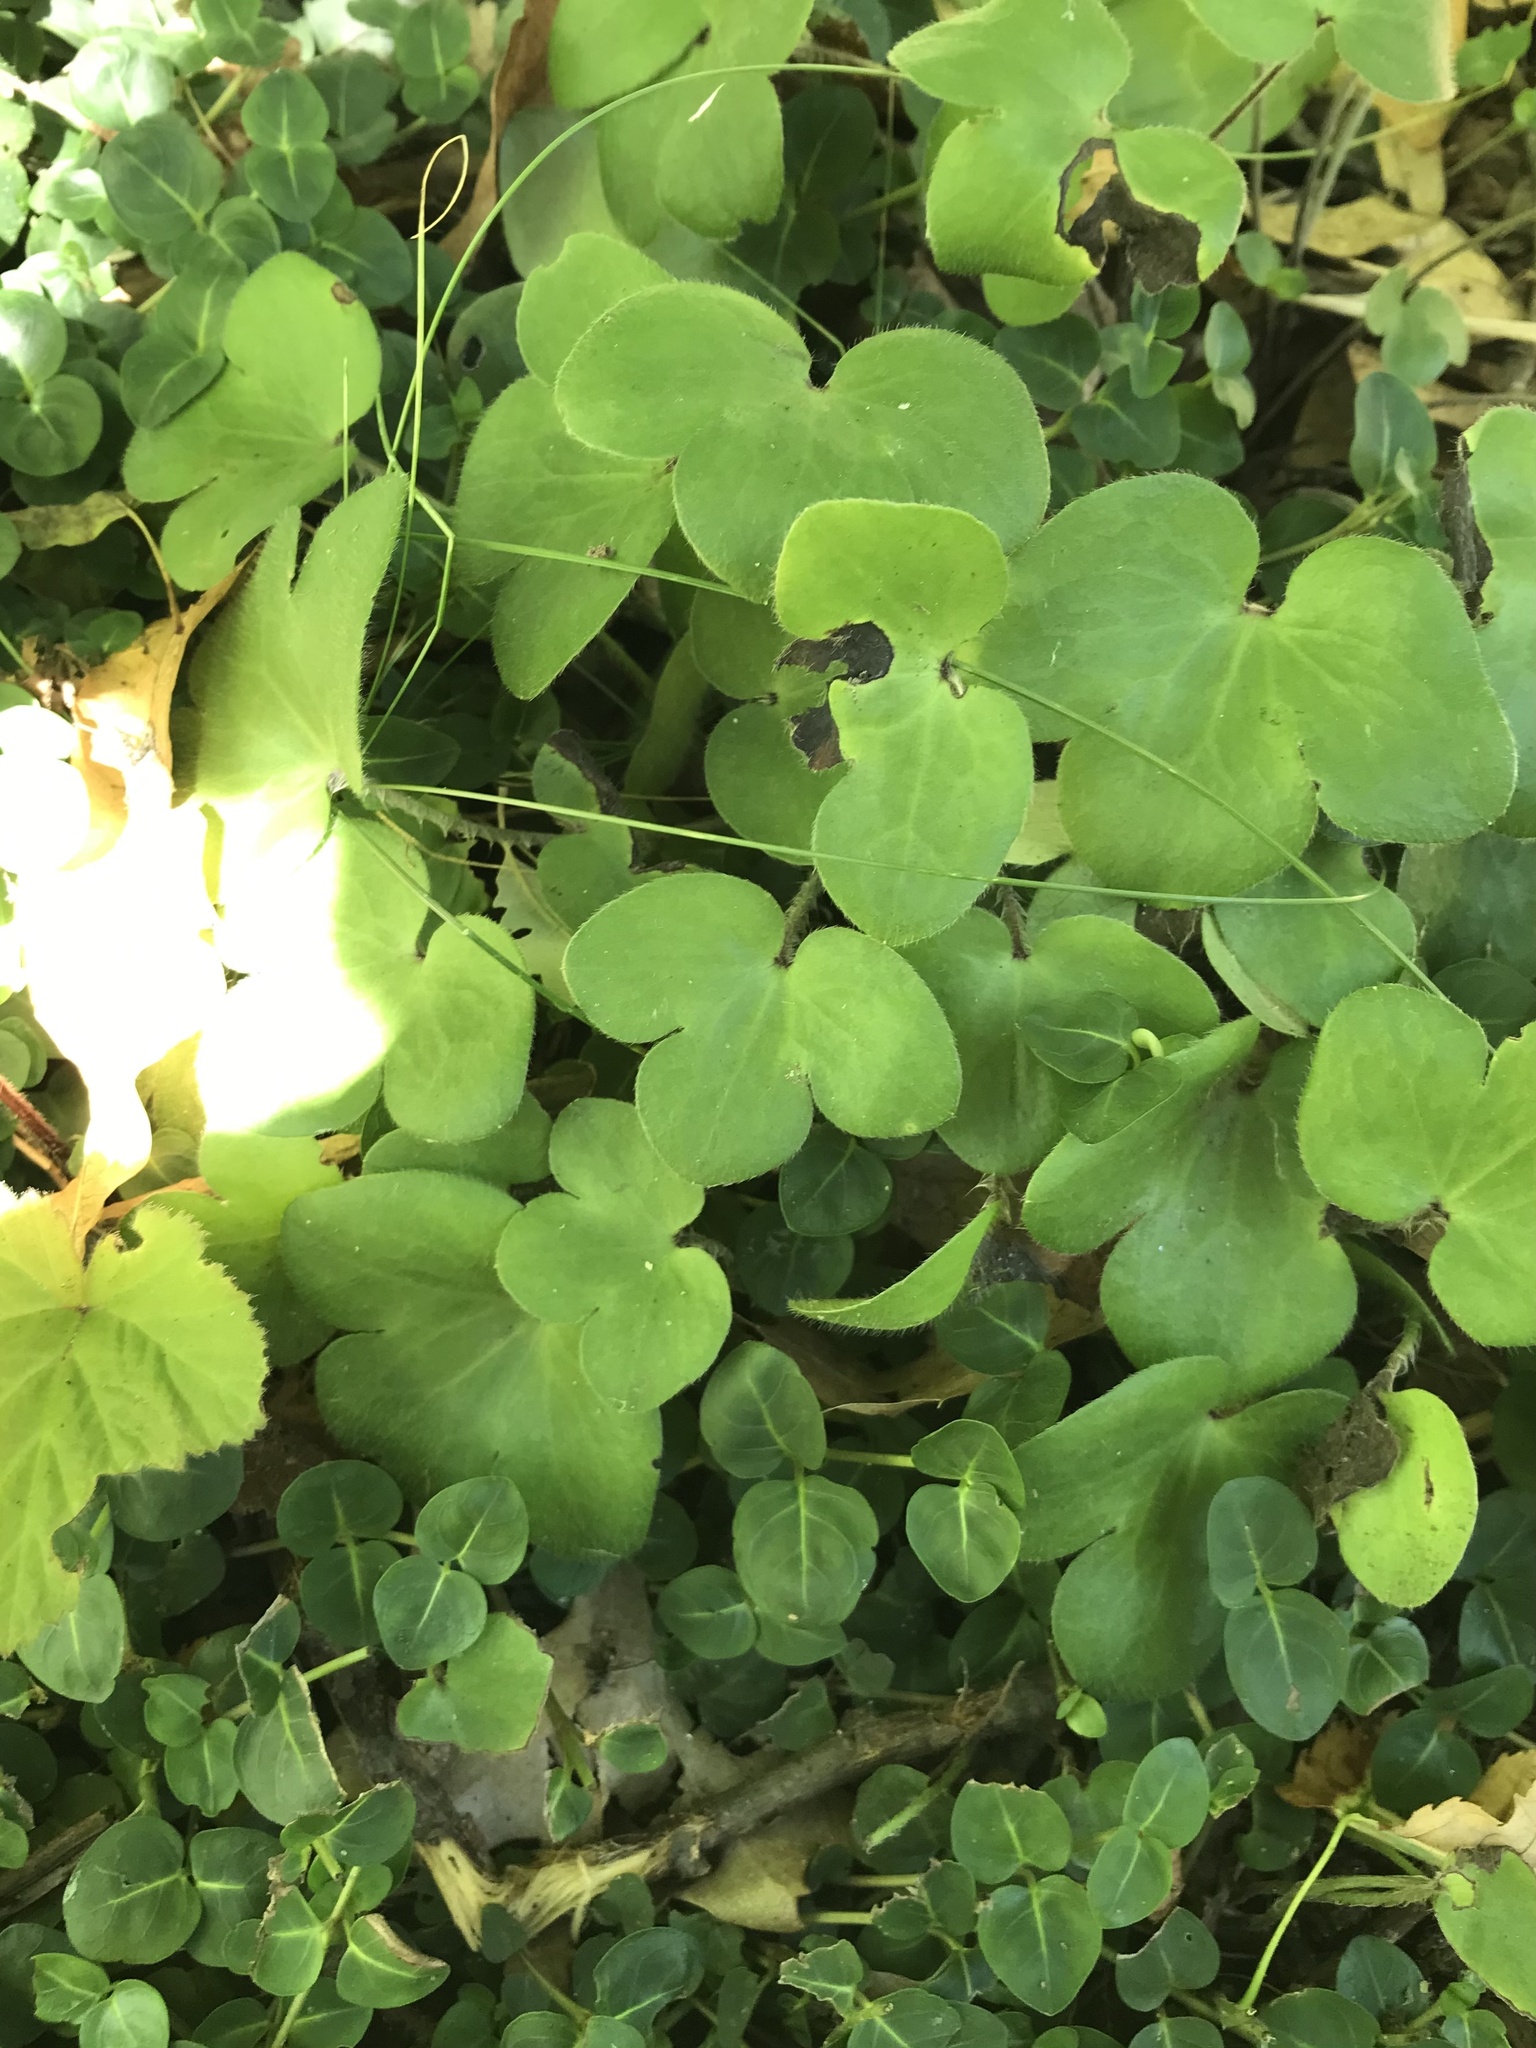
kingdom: Plantae
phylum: Tracheophyta
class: Magnoliopsida
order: Ranunculales
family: Ranunculaceae
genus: Hepatica
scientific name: Hepatica americana
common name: American hepatica
